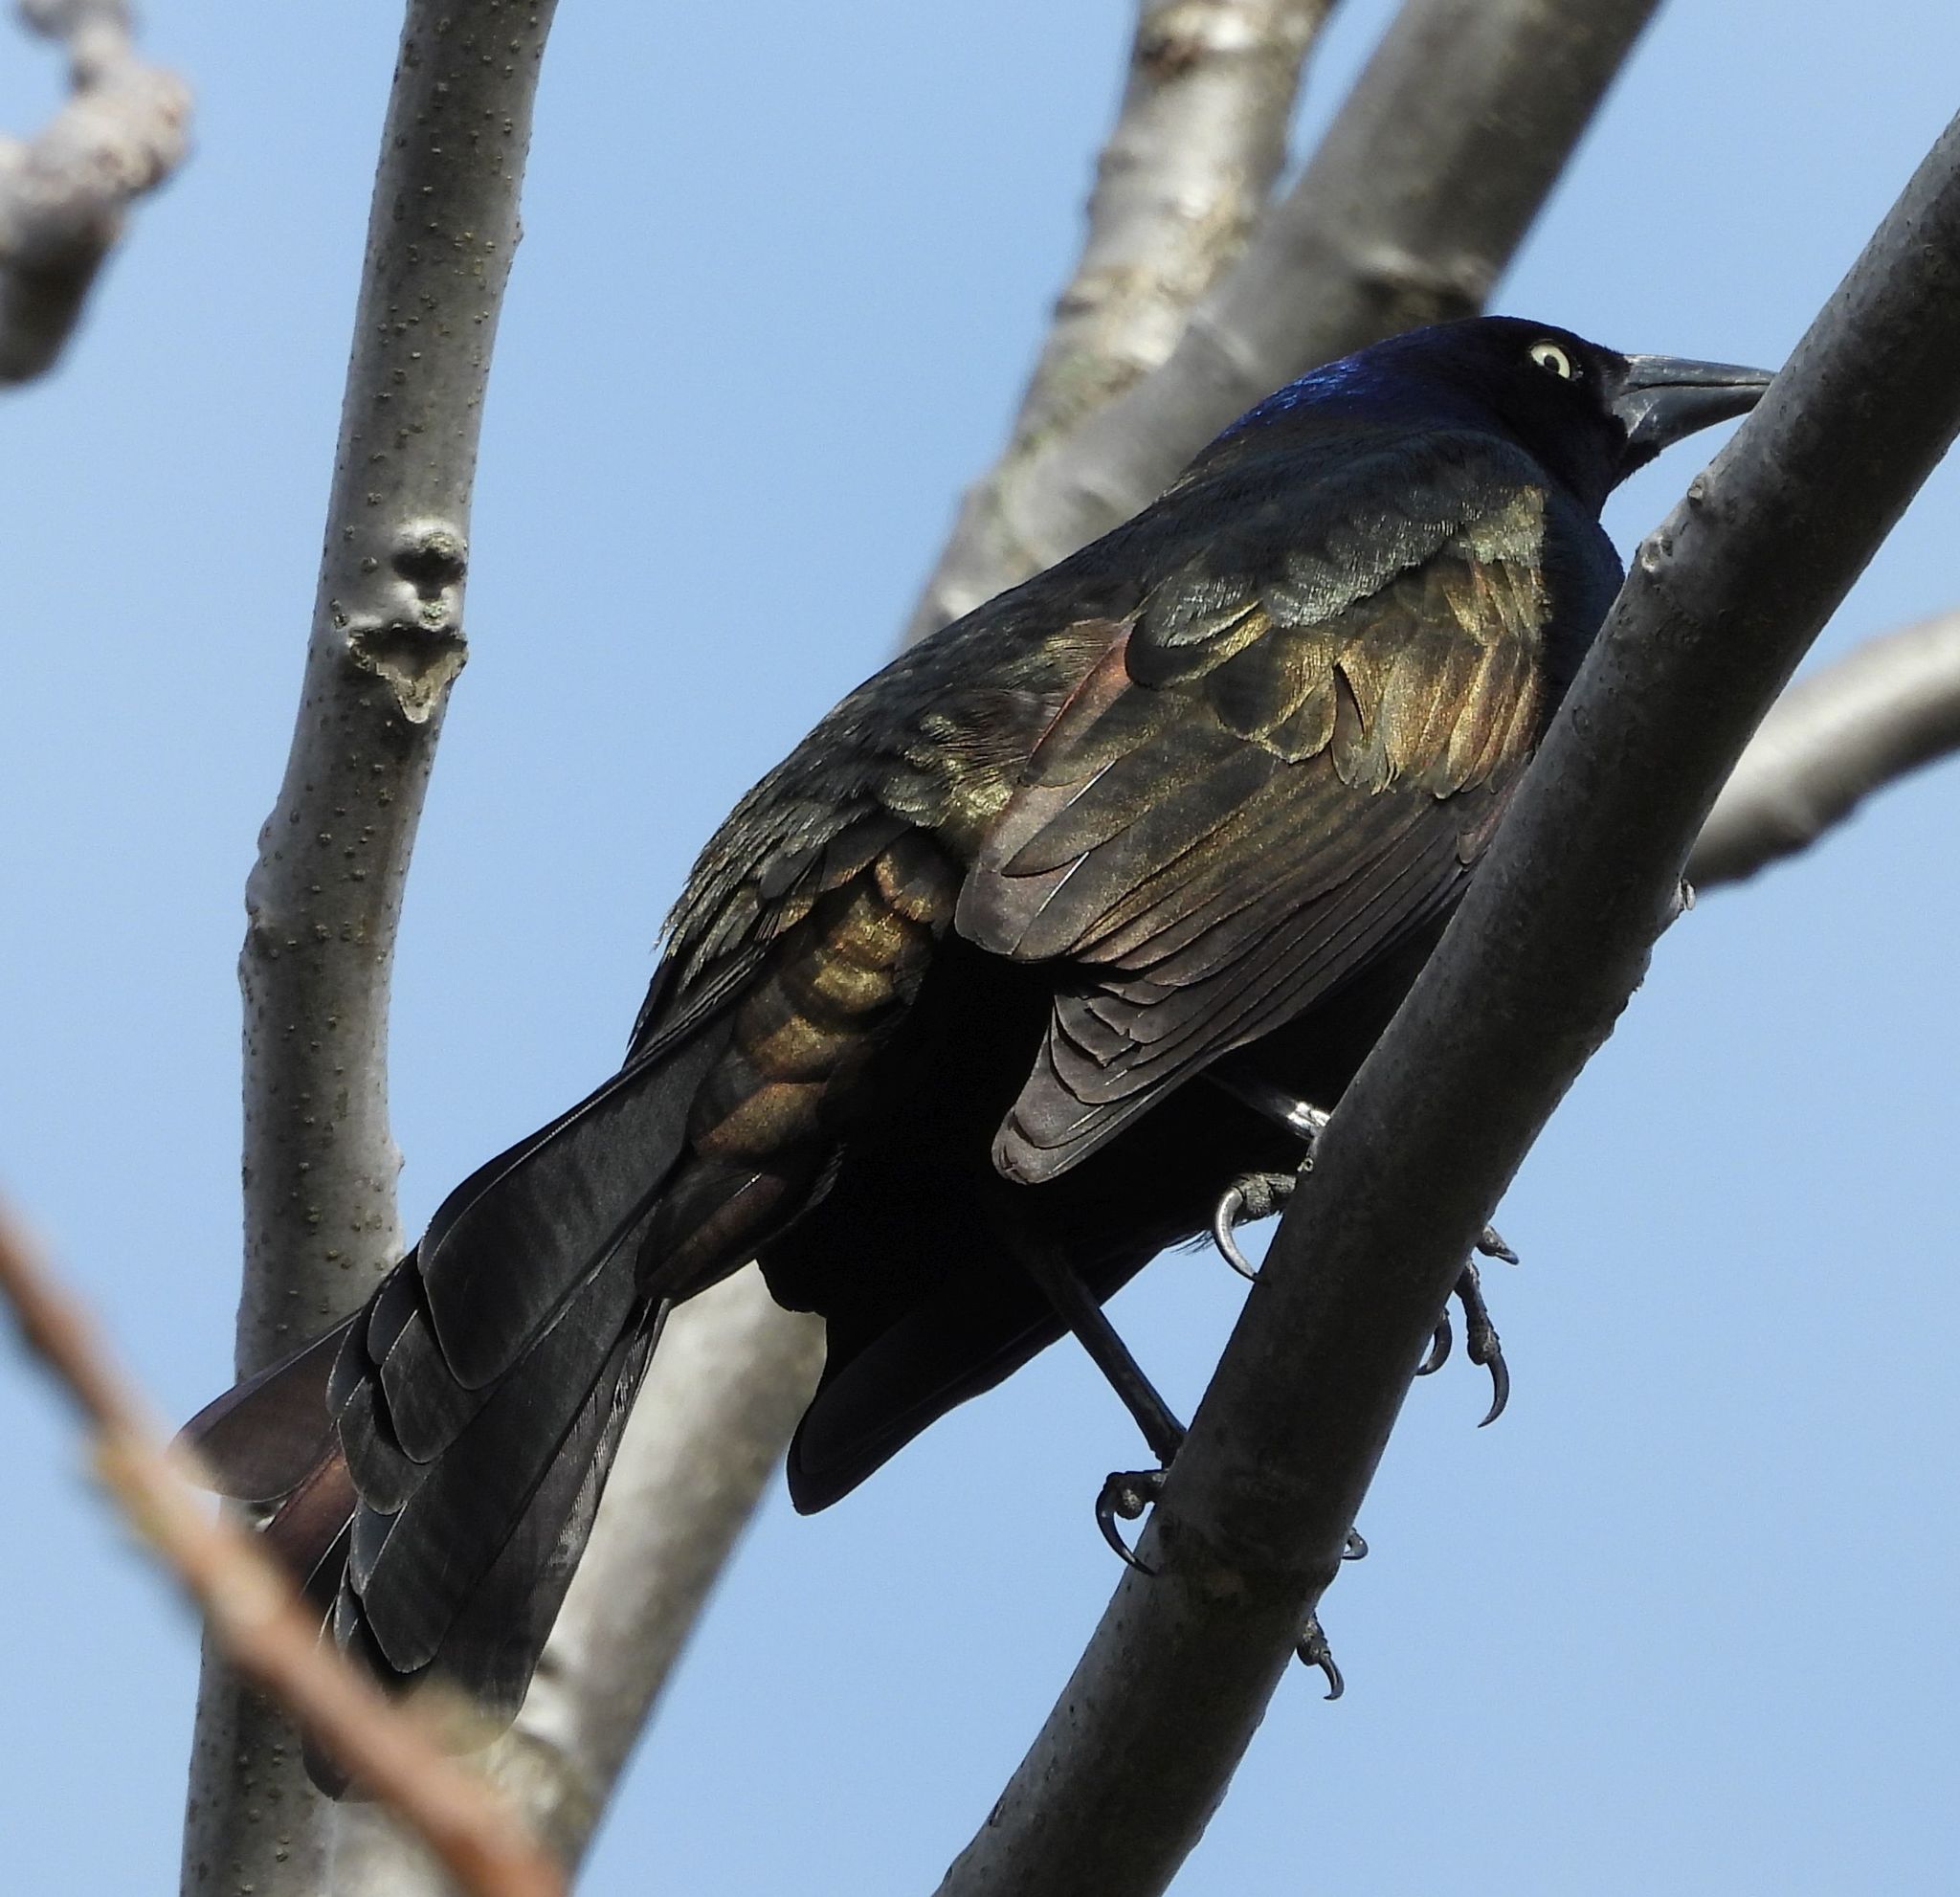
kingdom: Animalia
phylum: Chordata
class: Aves
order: Passeriformes
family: Icteridae
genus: Quiscalus
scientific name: Quiscalus quiscula
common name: Common grackle
